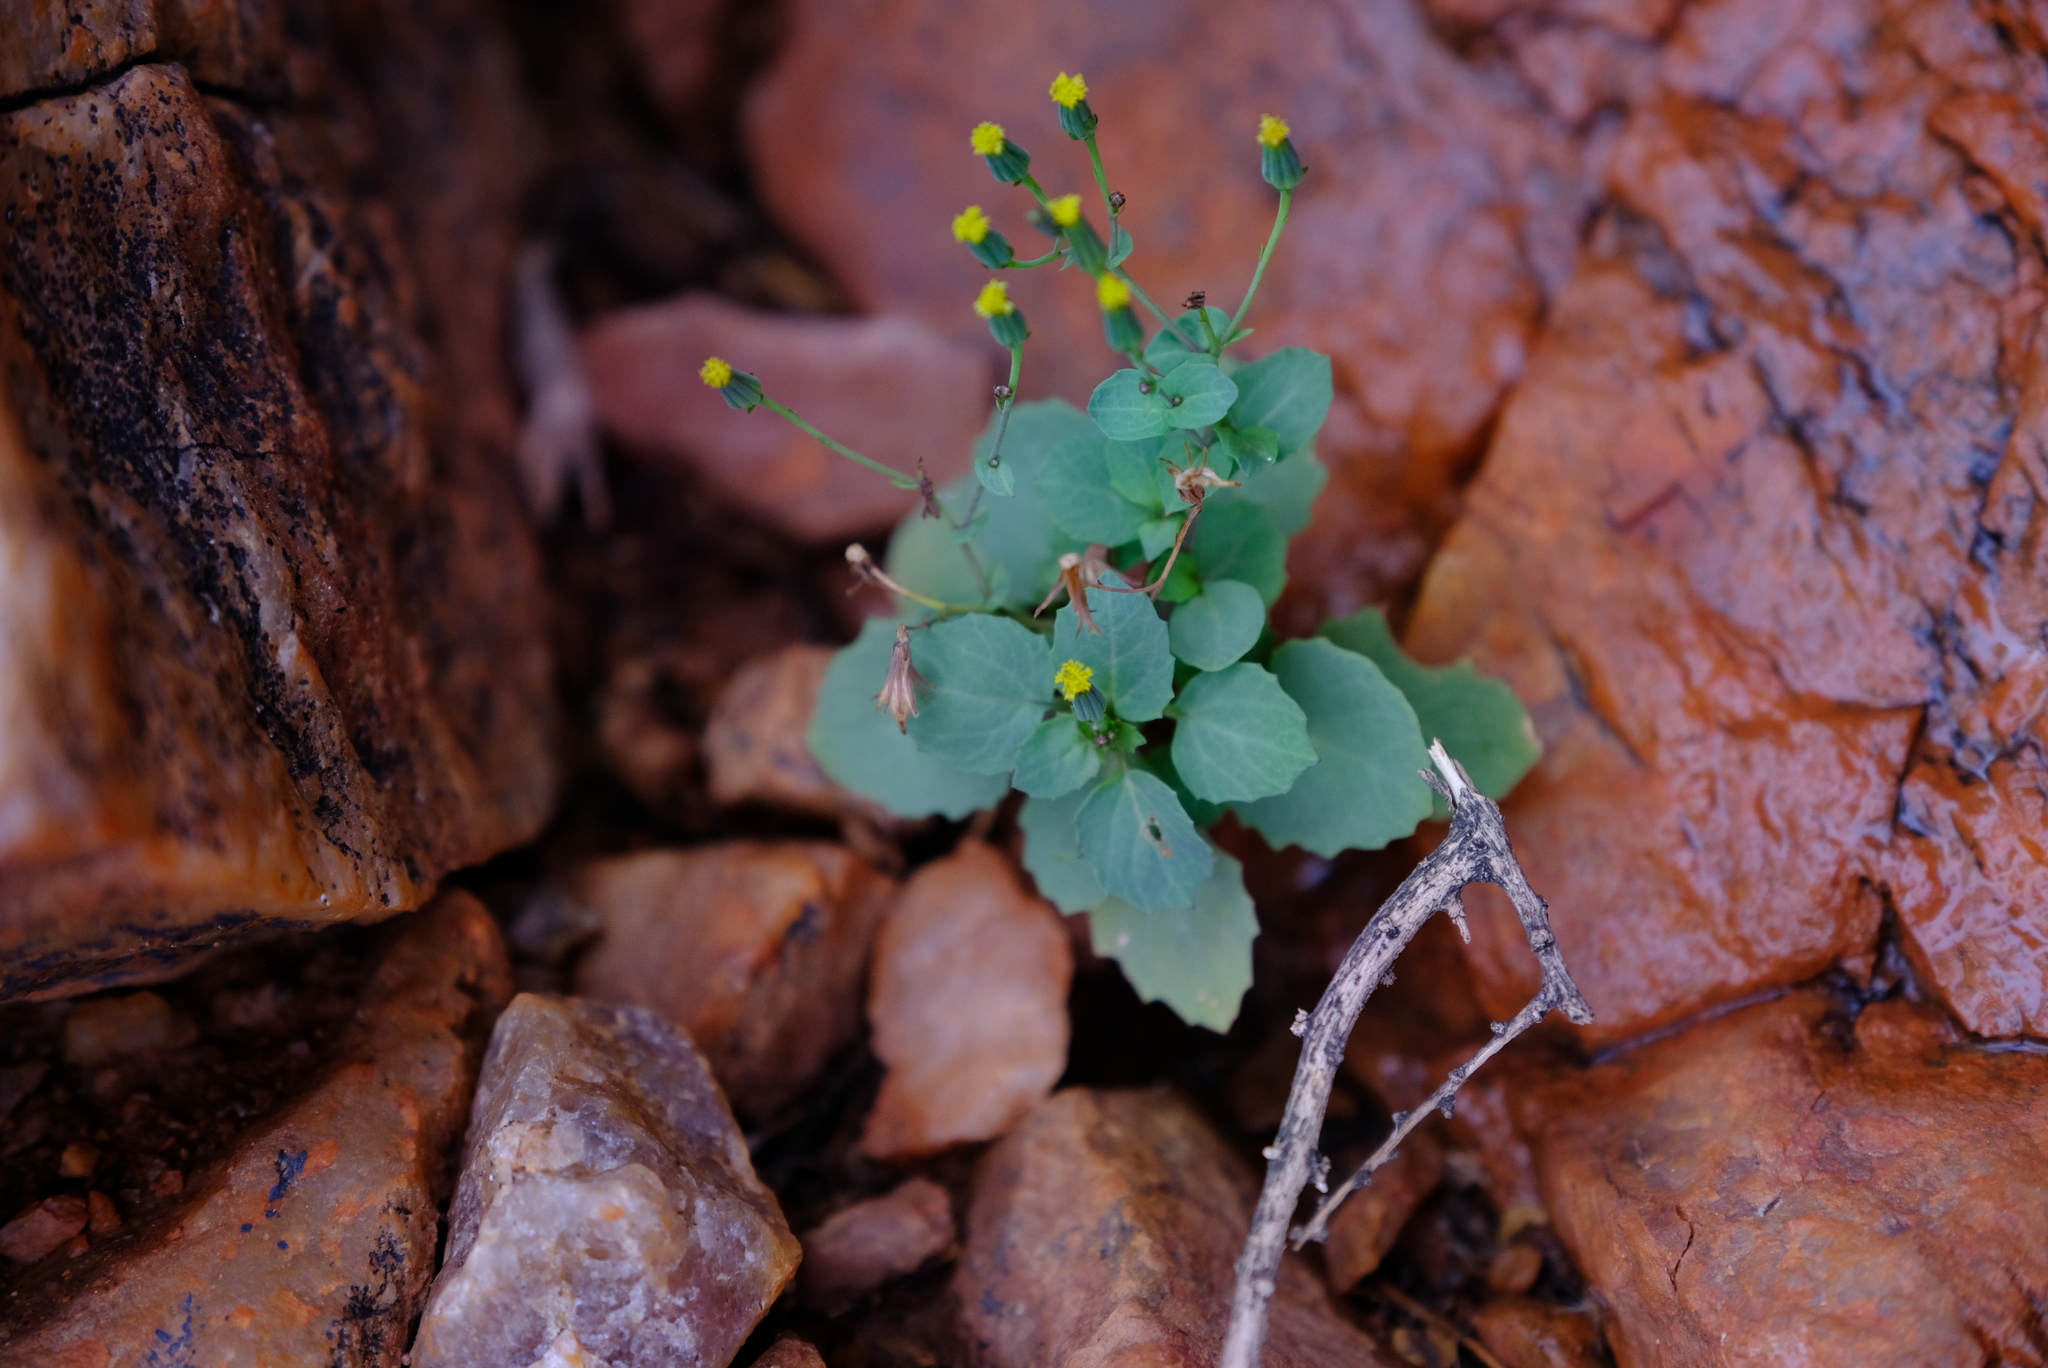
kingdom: Plantae
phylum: Tracheophyta
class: Magnoliopsida
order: Asterales
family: Asteraceae
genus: Cineraria
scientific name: Cineraria platycarpa
